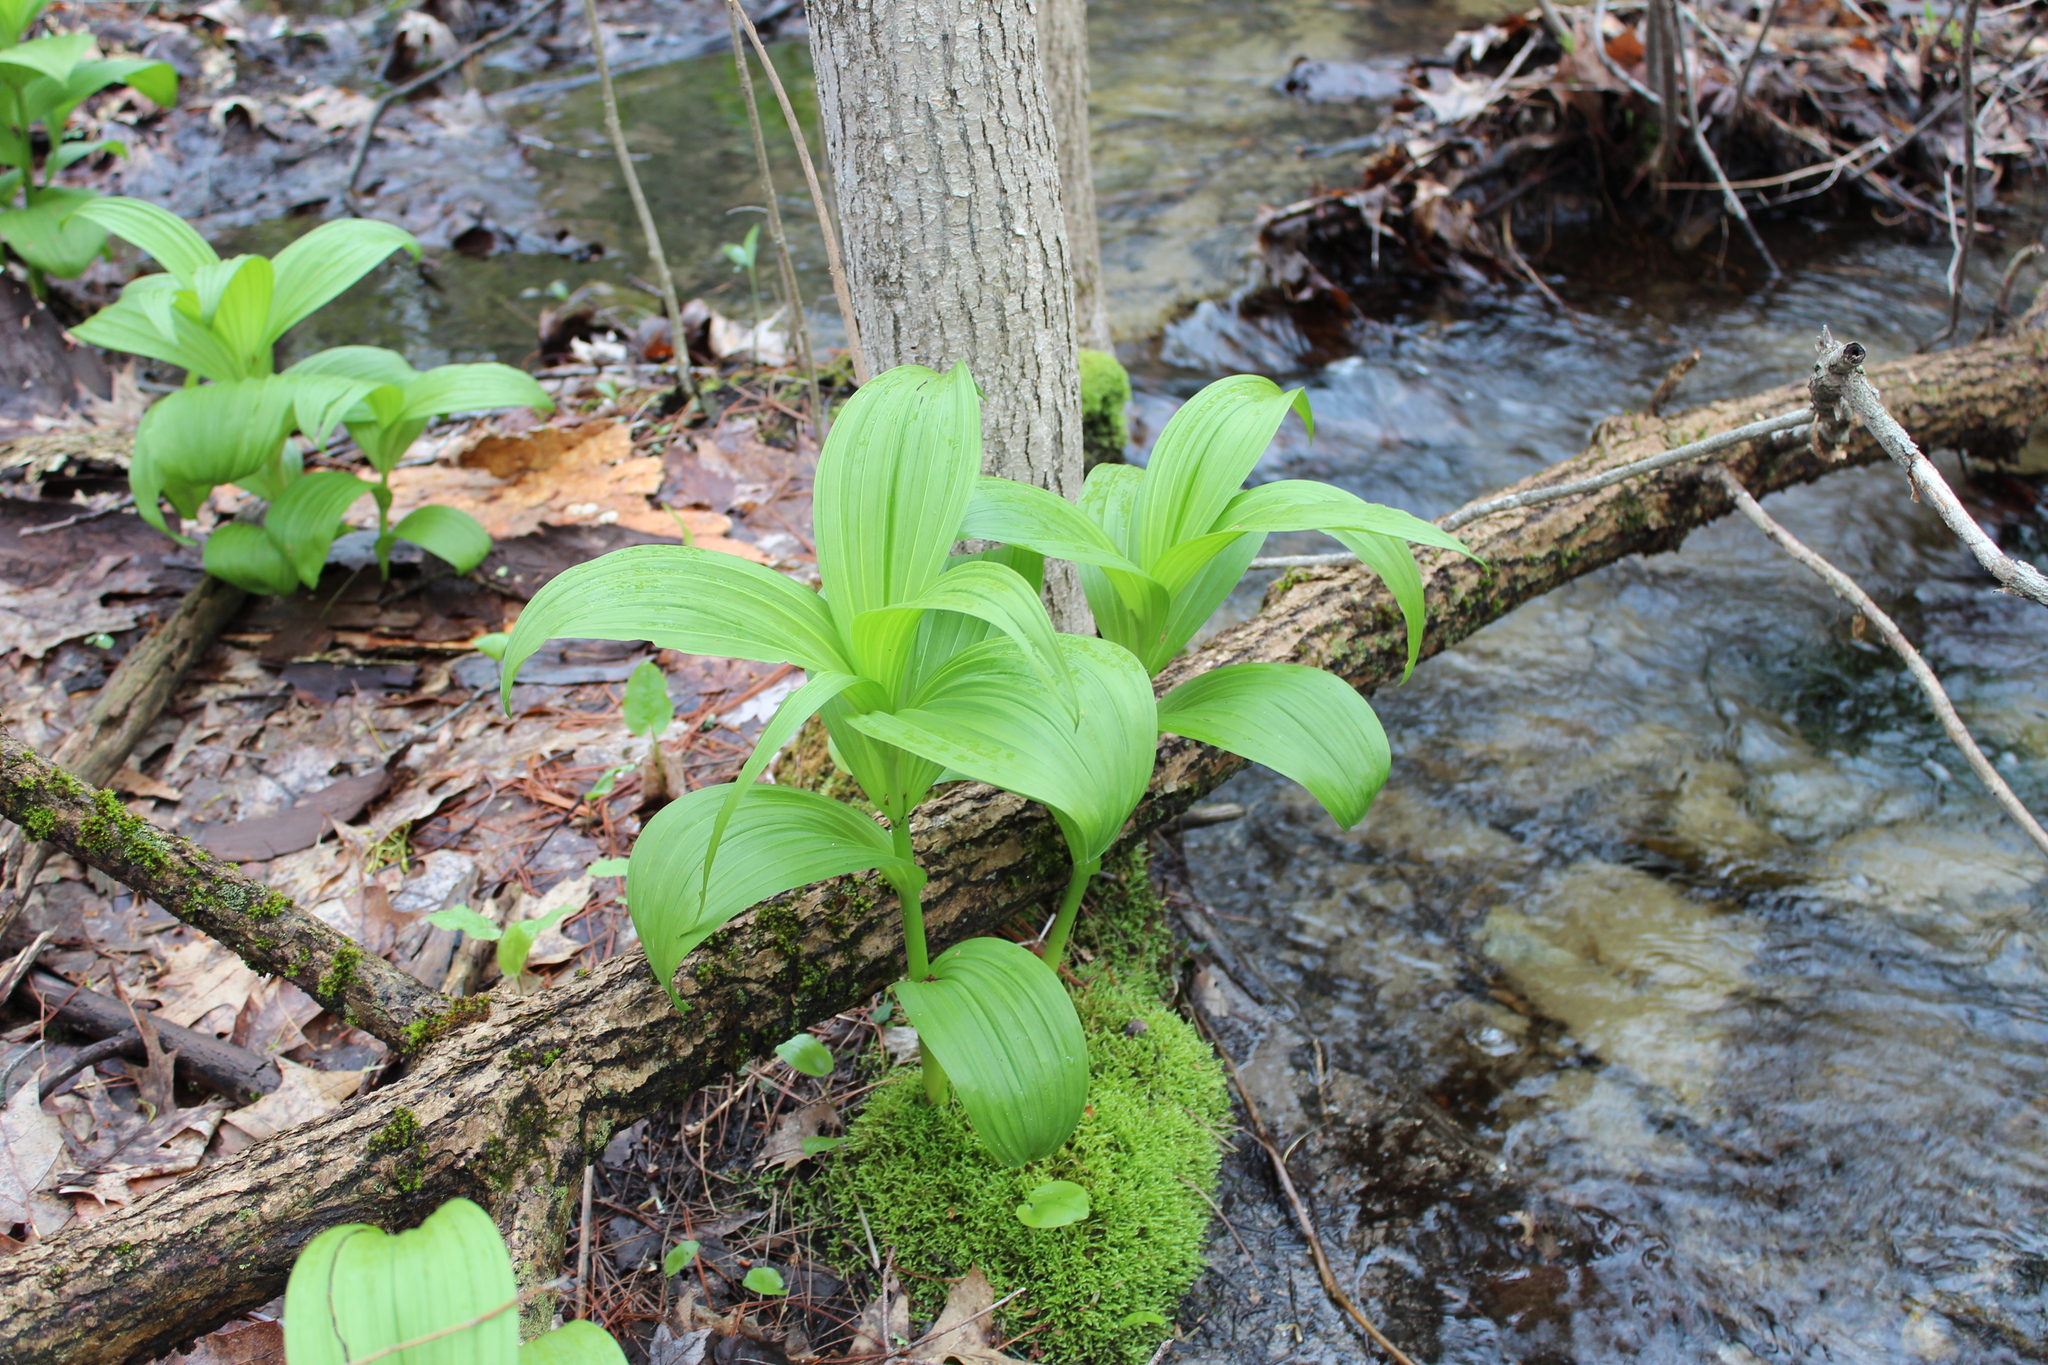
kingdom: Plantae
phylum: Tracheophyta
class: Liliopsida
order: Liliales
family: Melanthiaceae
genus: Veratrum
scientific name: Veratrum viride
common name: American false hellebore
